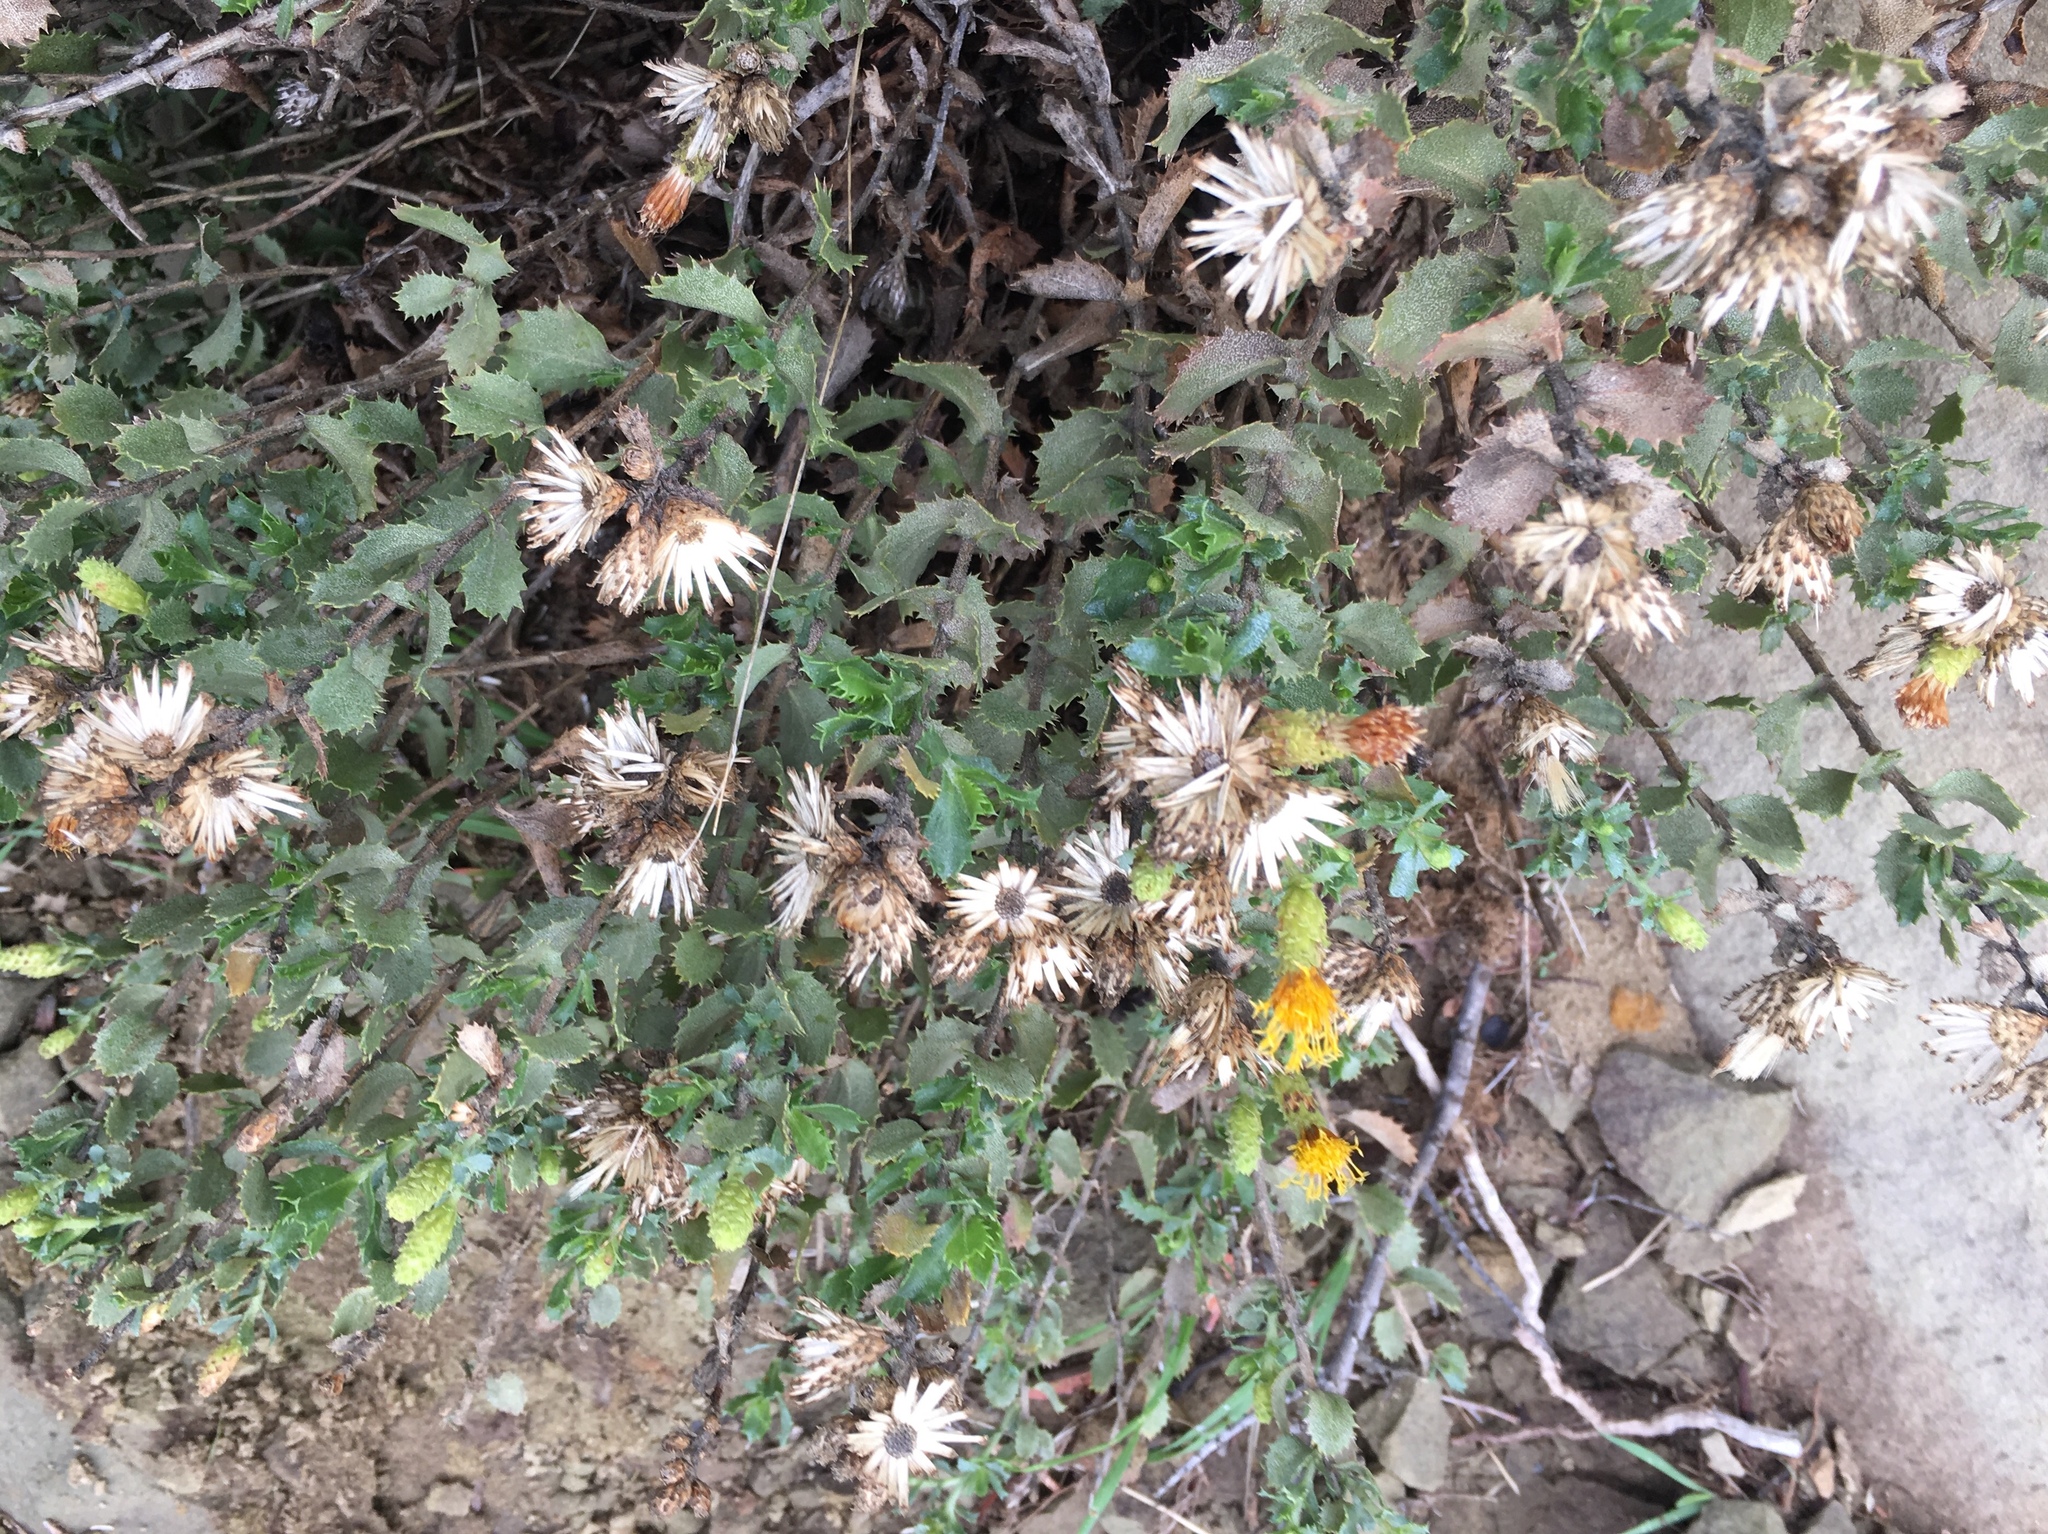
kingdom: Plantae
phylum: Tracheophyta
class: Magnoliopsida
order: Asterales
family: Asteraceae
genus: Hazardia
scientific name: Hazardia squarrosa
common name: Saw-tooth goldenbush
